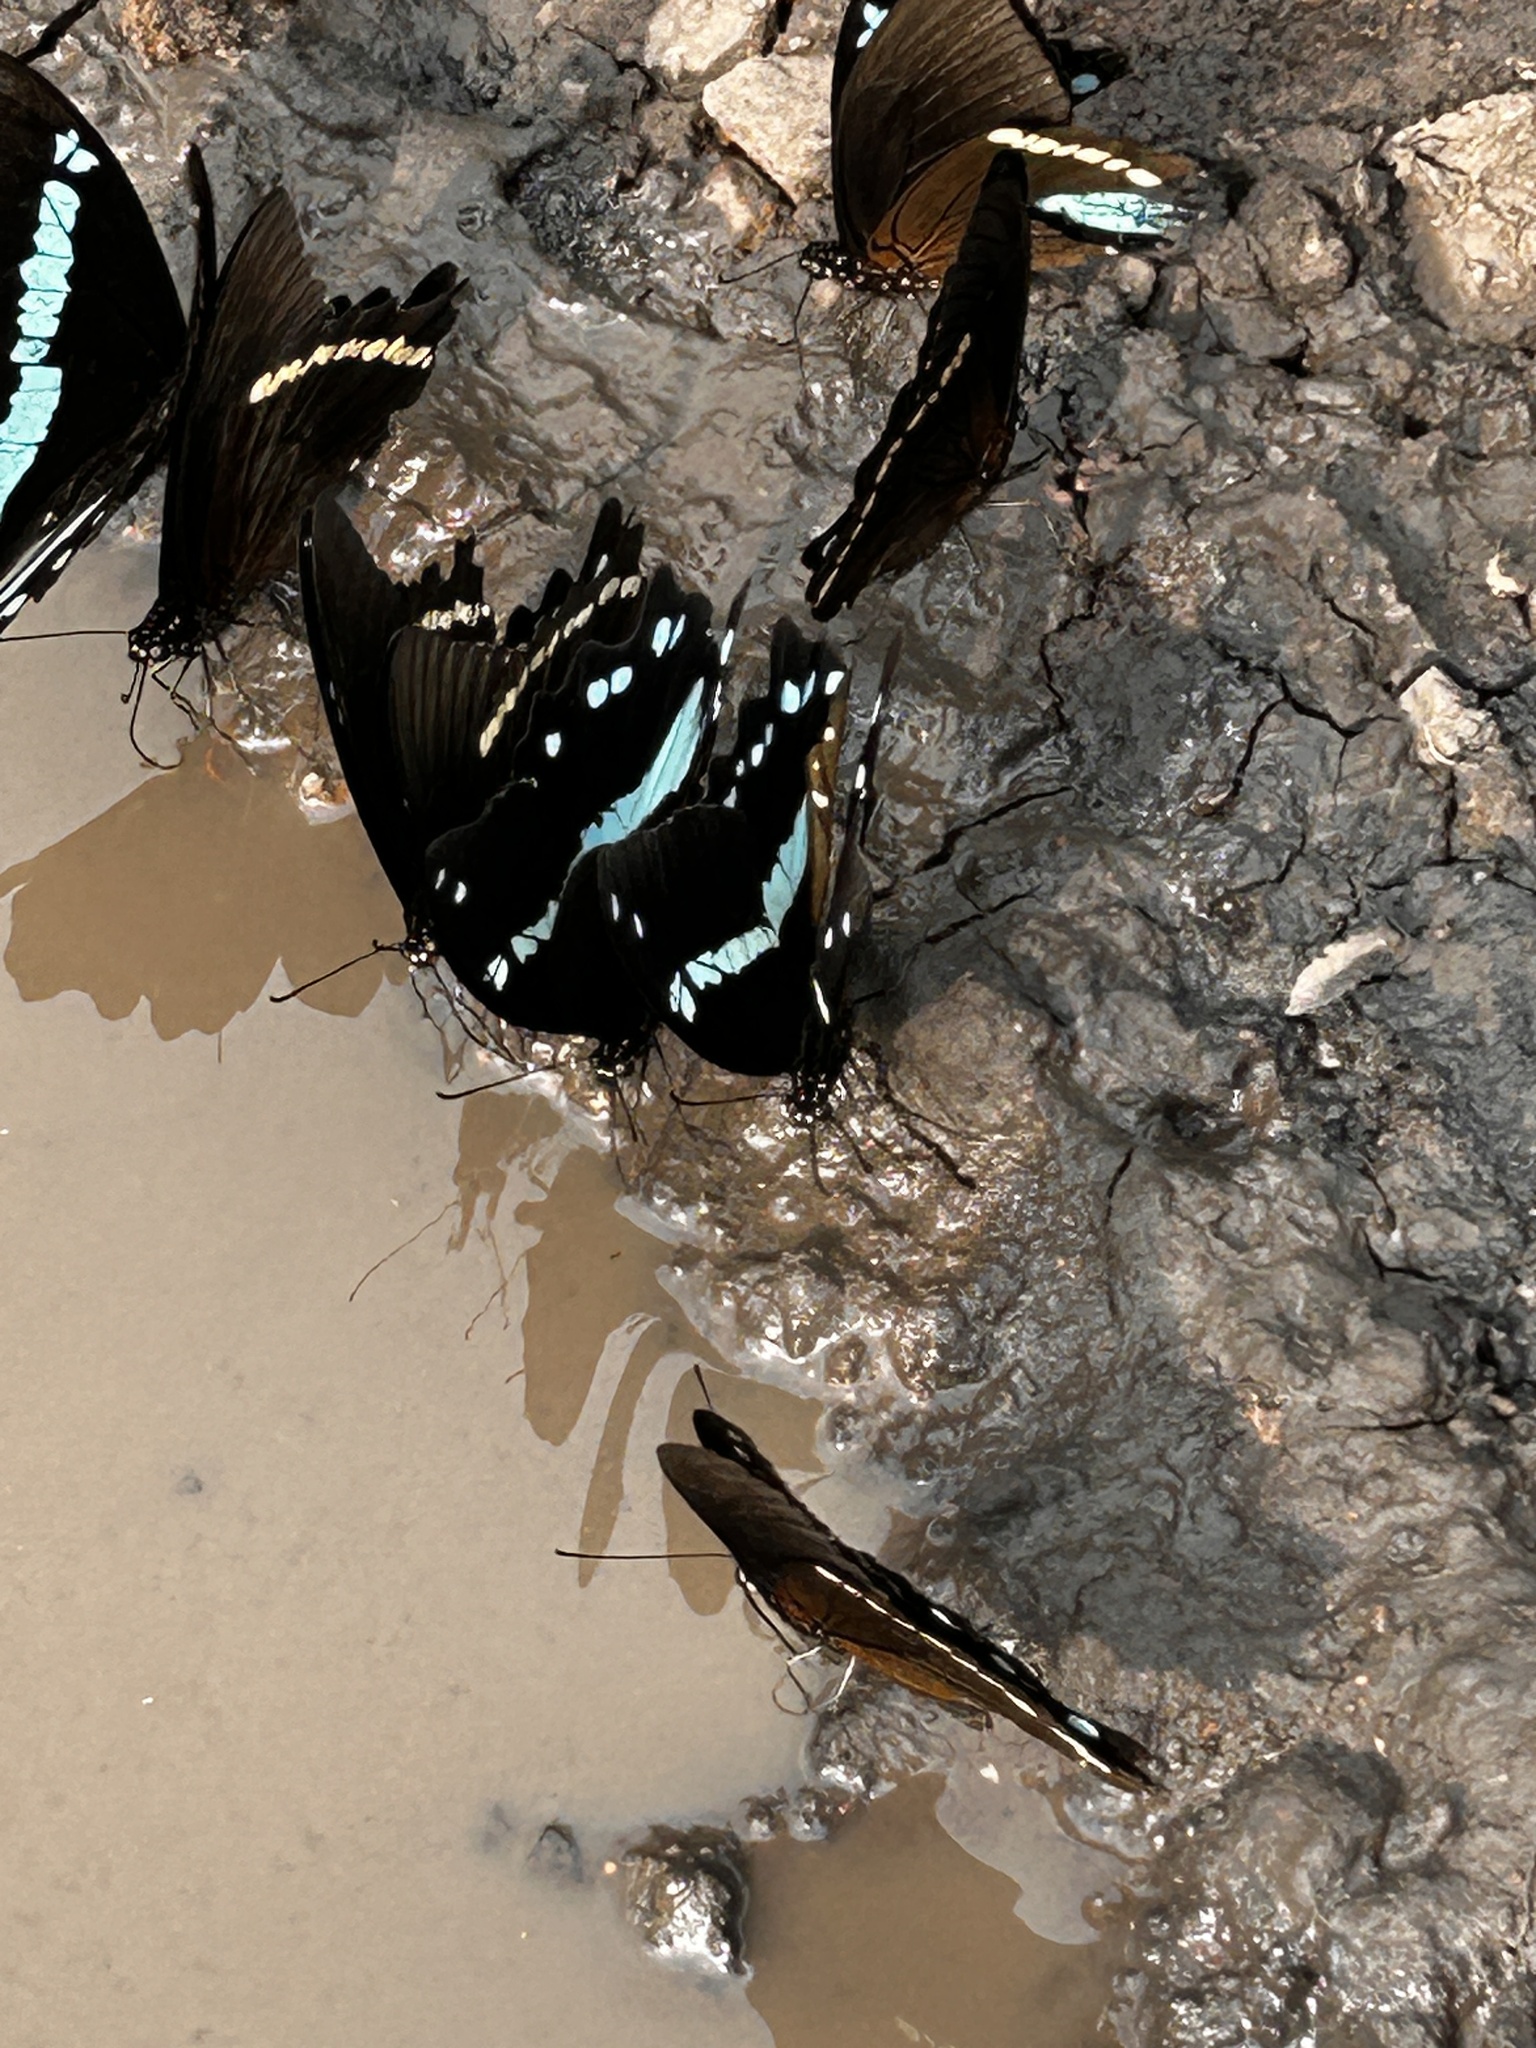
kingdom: Animalia
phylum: Arthropoda
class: Insecta
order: Lepidoptera
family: Papilionidae
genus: Papilio
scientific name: Papilio nireus
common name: Greenbanded swallowtail
